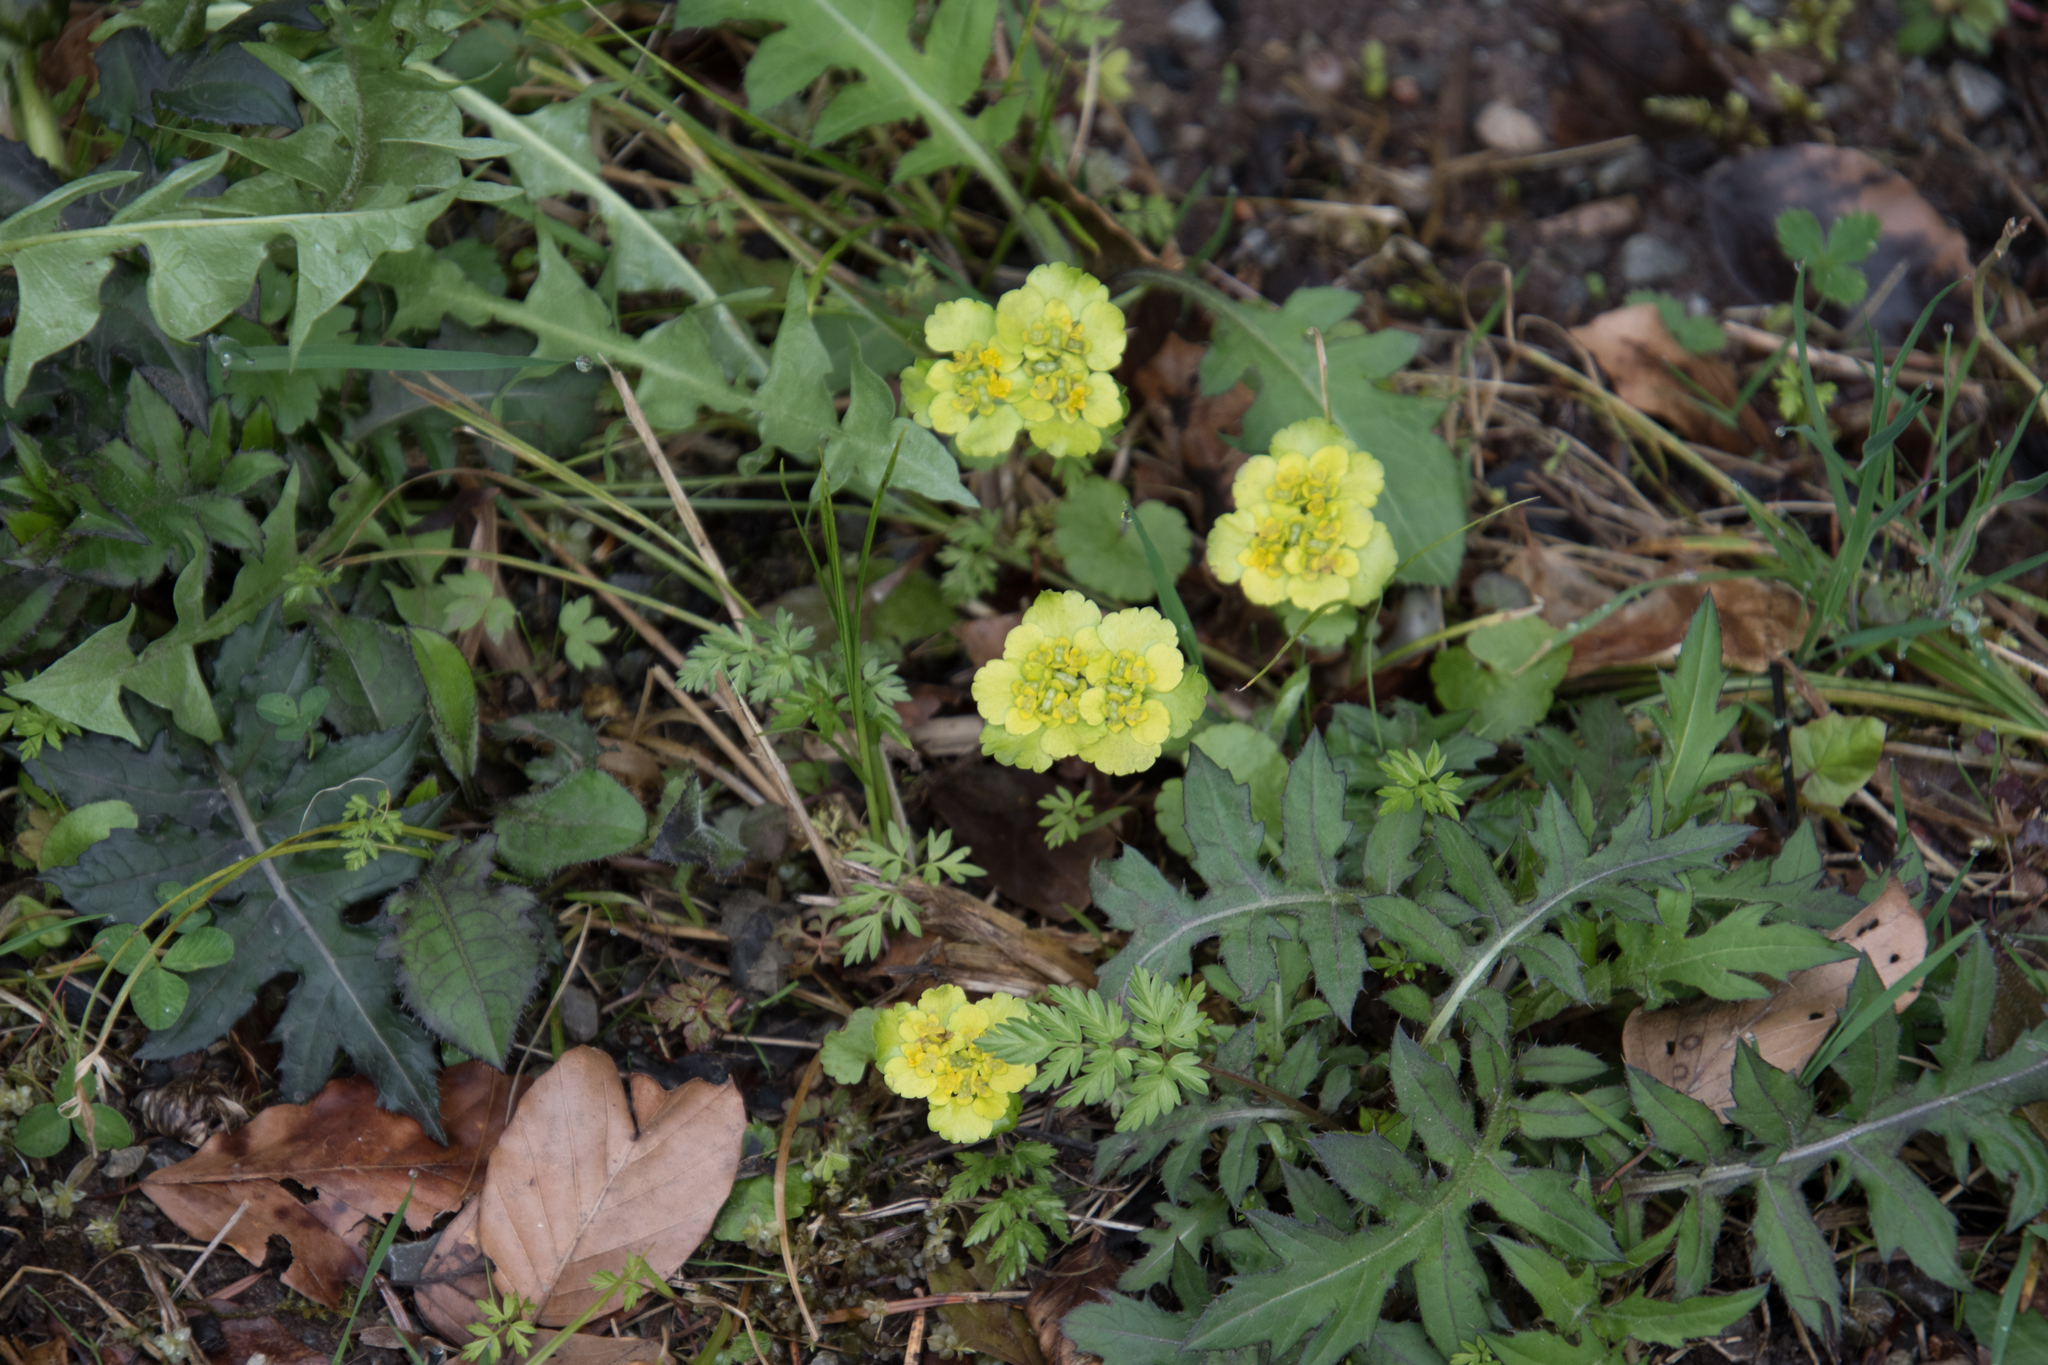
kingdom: Plantae
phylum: Tracheophyta
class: Magnoliopsida
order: Saxifragales
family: Saxifragaceae
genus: Chrysosplenium
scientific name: Chrysosplenium alternifolium
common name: Alternate-leaved golden-saxifrage
